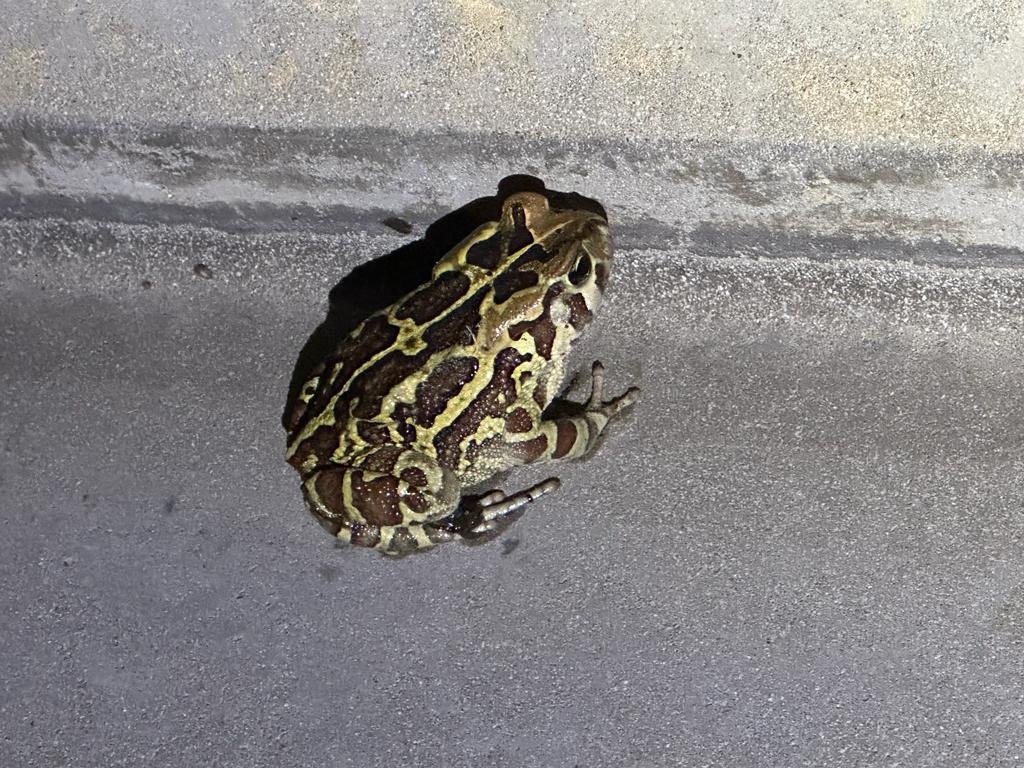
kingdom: Animalia
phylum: Chordata
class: Amphibia
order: Anura
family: Bufonidae
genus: Sclerophrys
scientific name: Sclerophrys pantherina
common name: Panther toad
